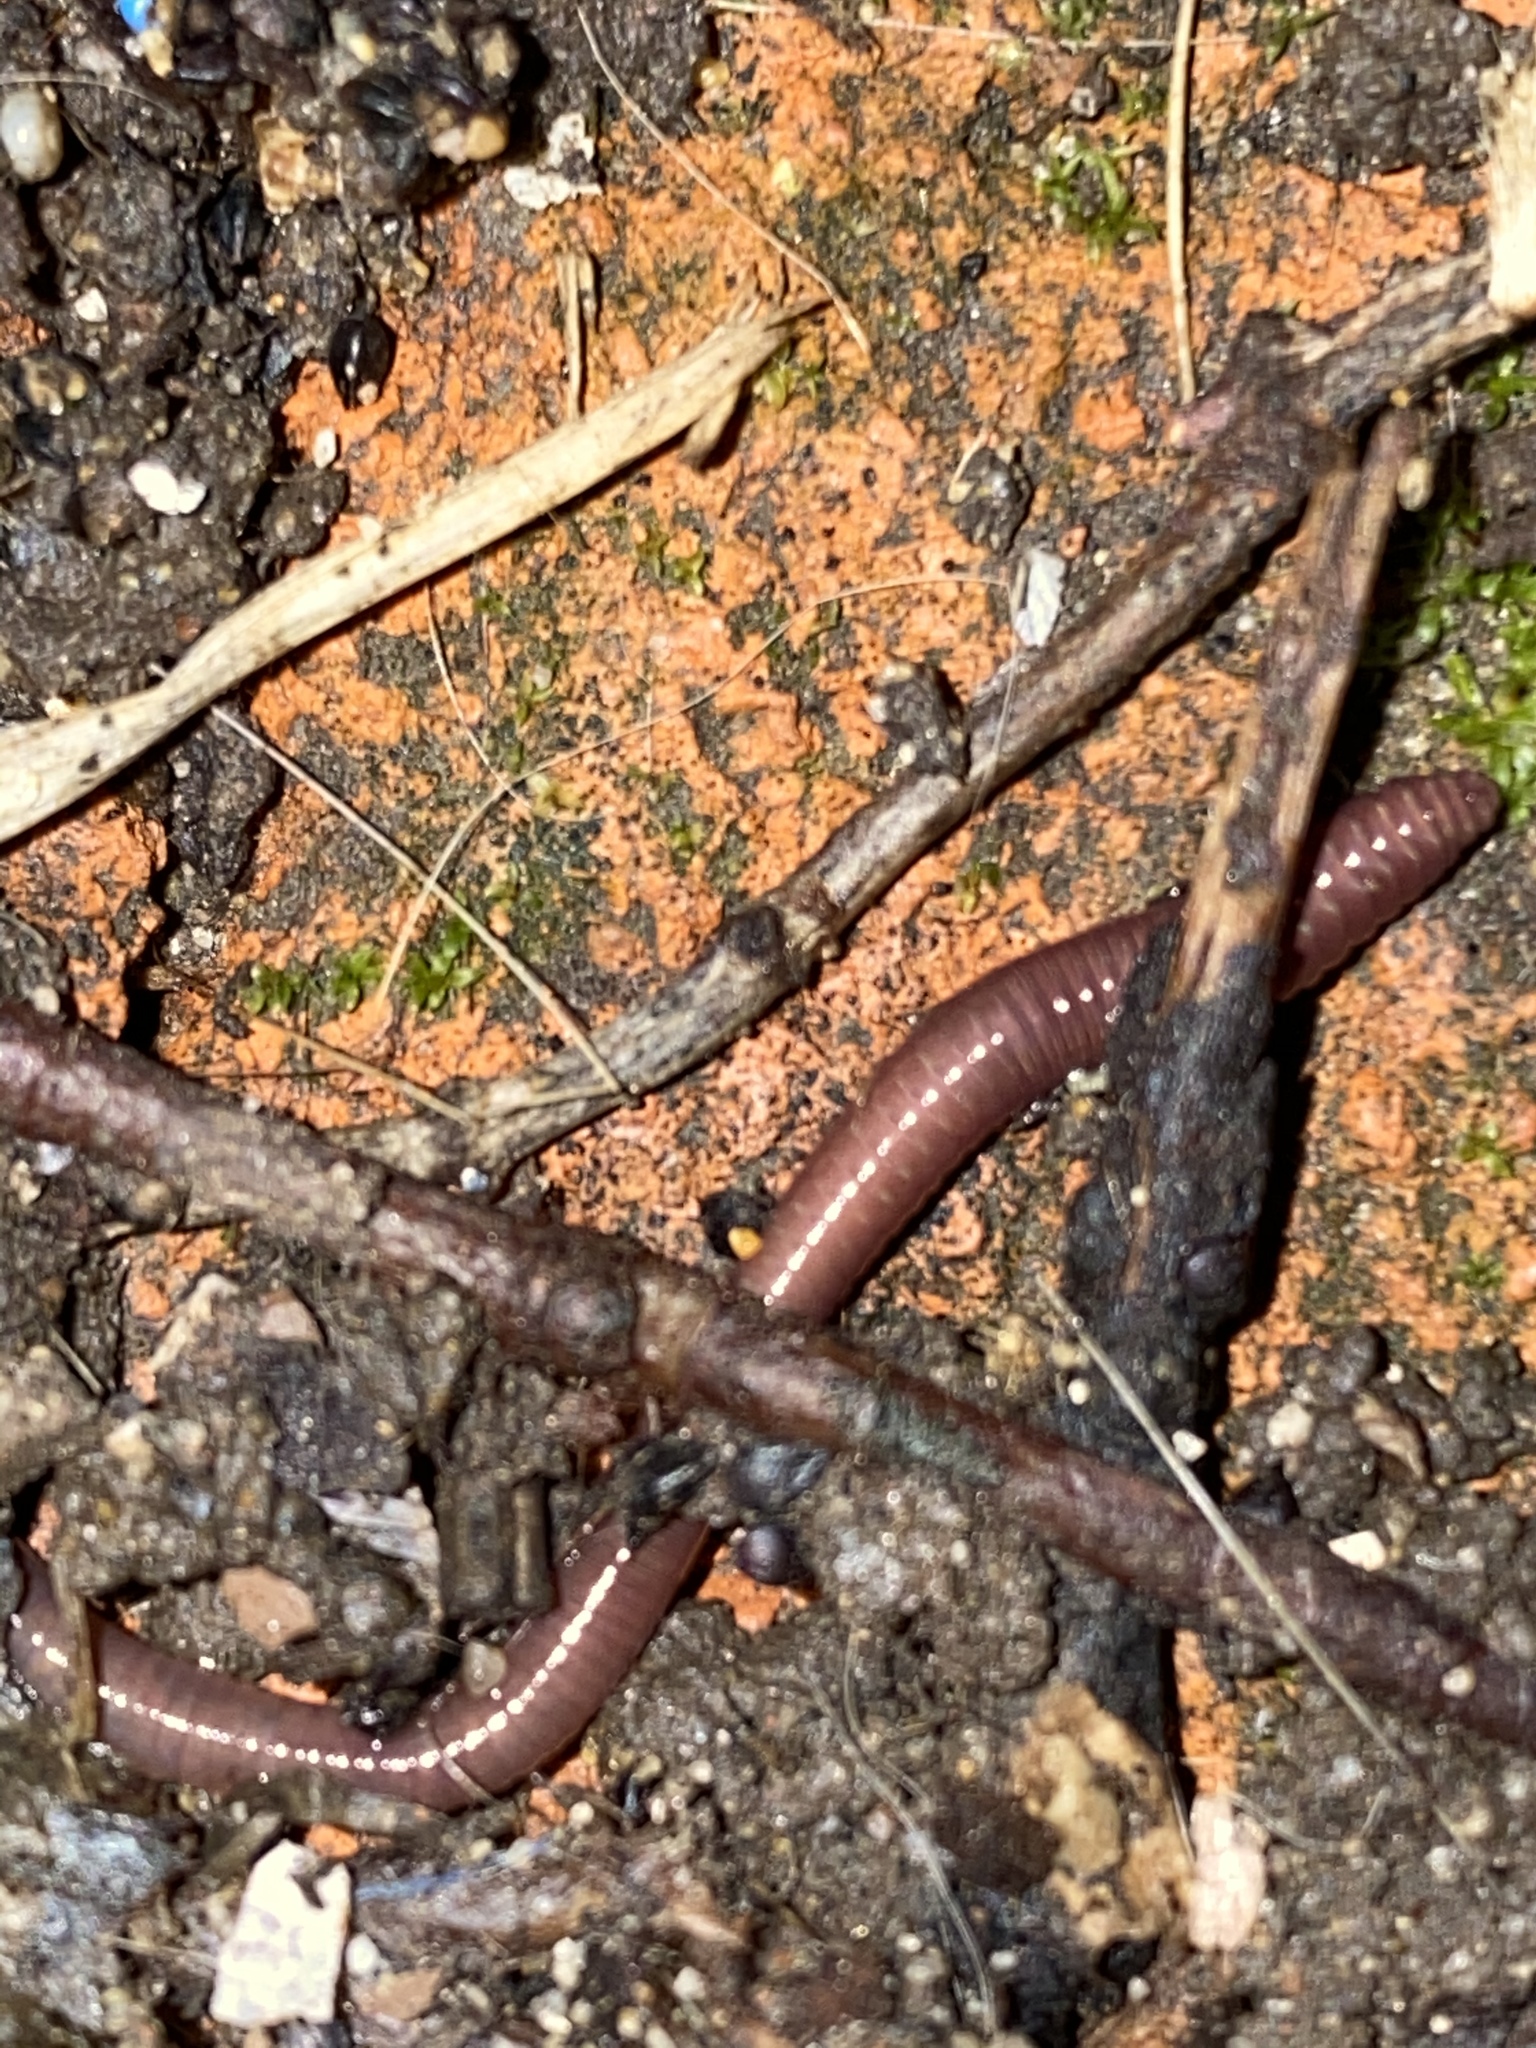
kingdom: Animalia
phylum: Annelida
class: Clitellata
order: Crassiclitellata
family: Lumbricidae
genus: Lumbricus
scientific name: Lumbricus terrestris
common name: Common earthworm
